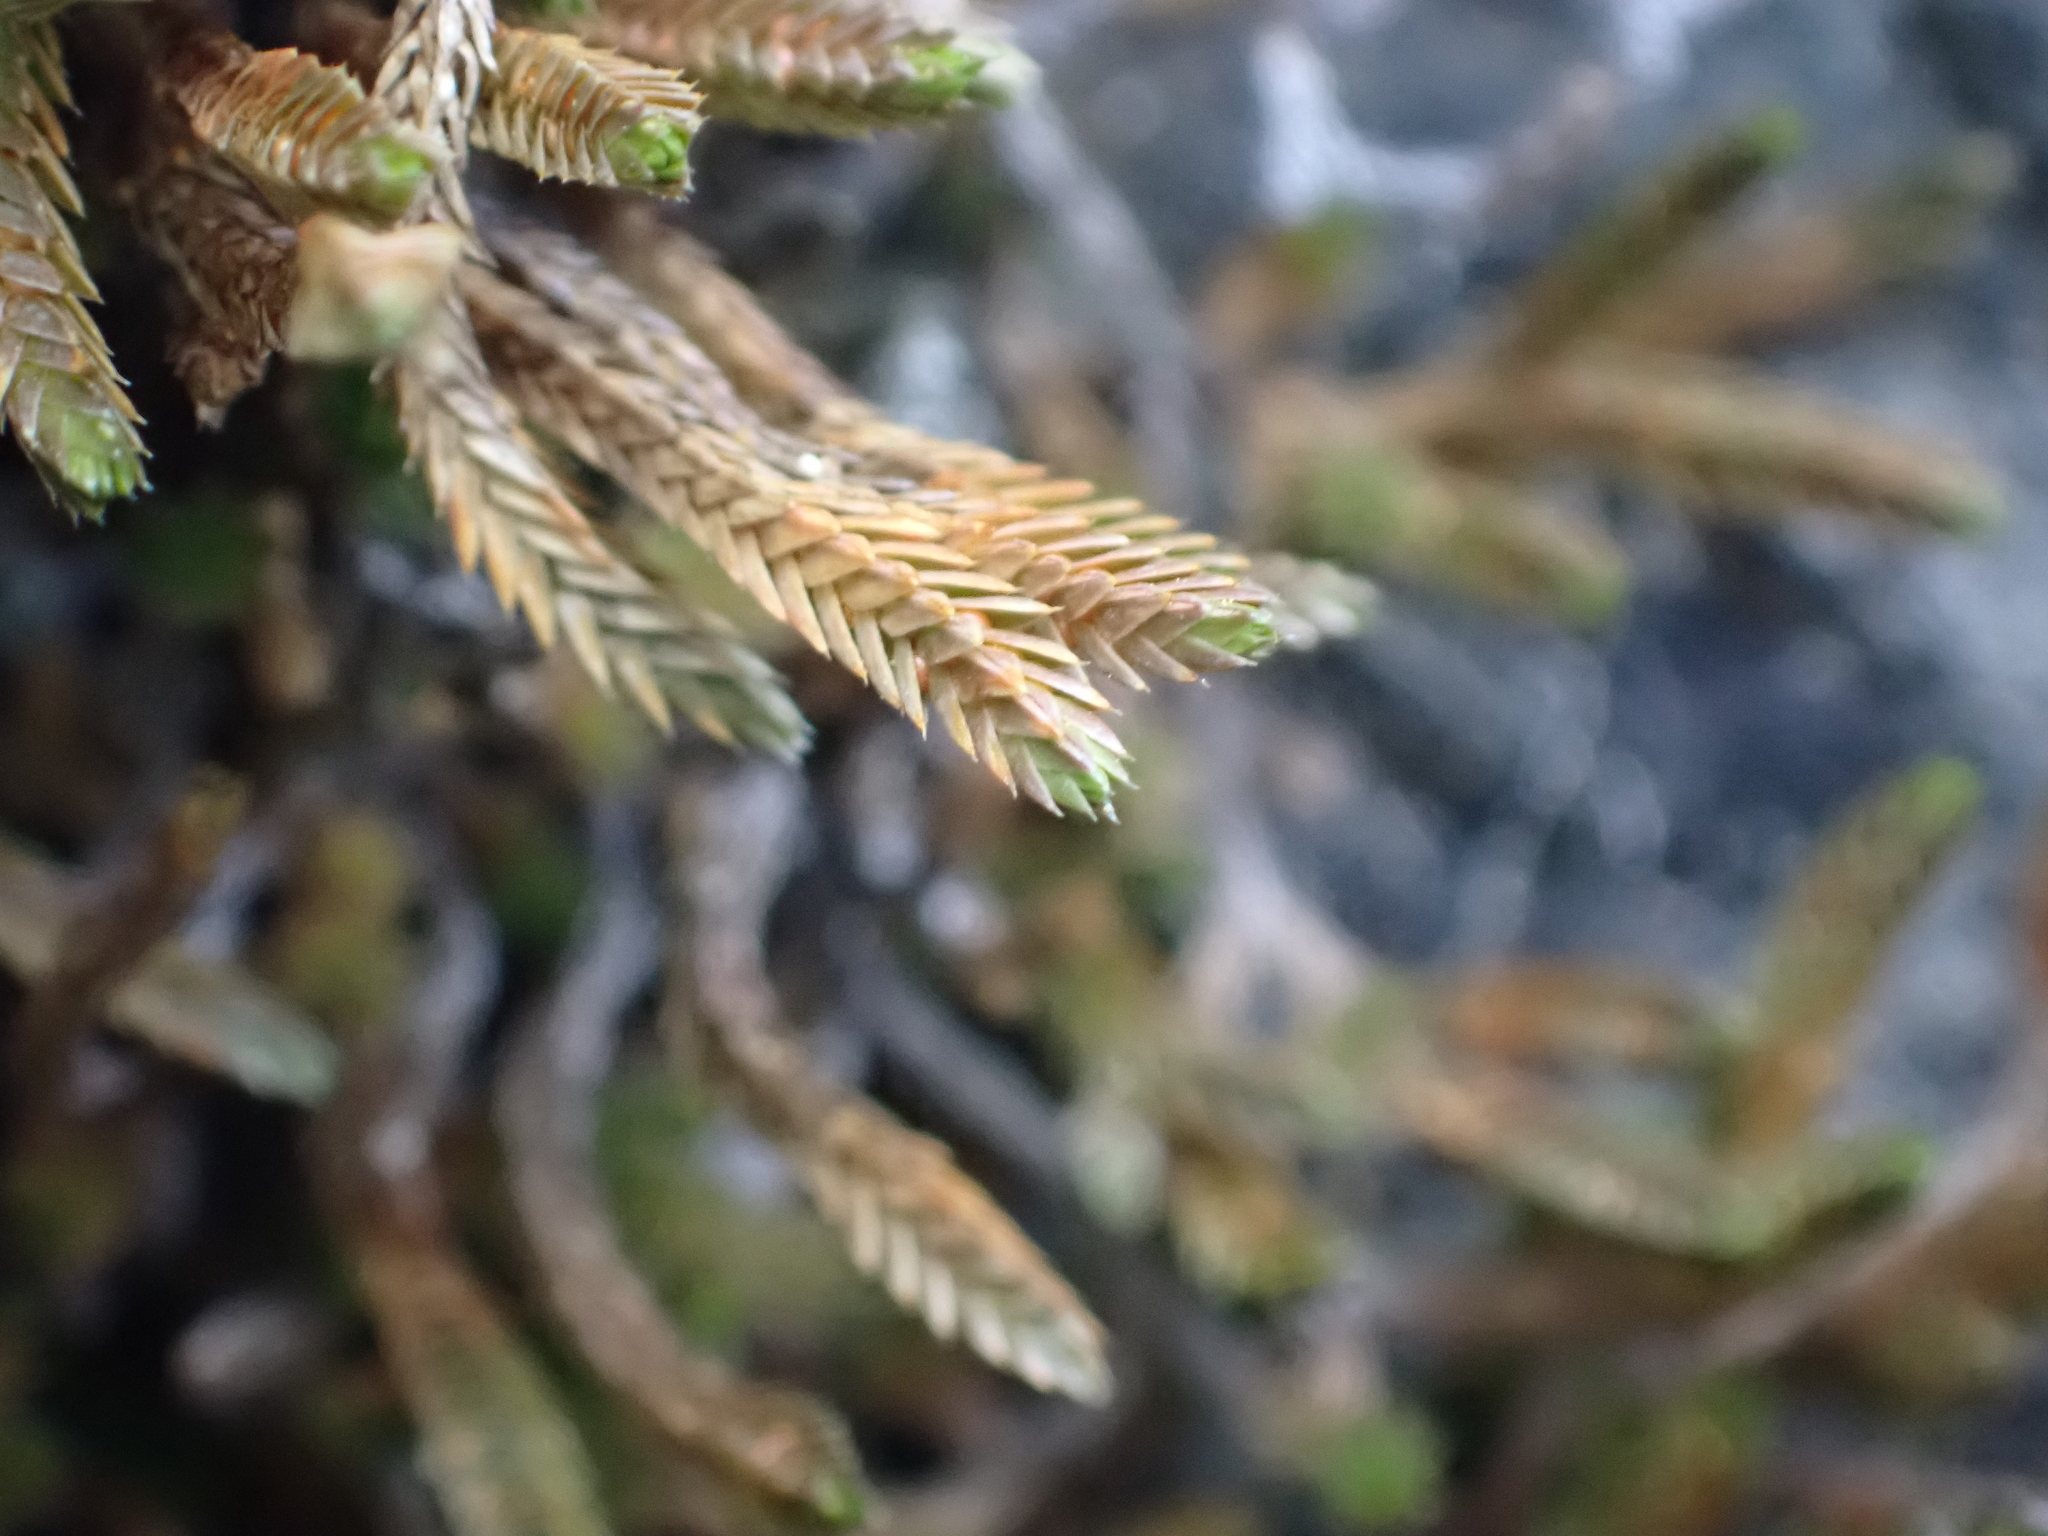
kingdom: Plantae
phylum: Tracheophyta
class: Lycopodiopsida
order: Selaginellales
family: Selaginellaceae
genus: Selaginella
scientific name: Selaginella wallacei
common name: Wallace's selaginella
